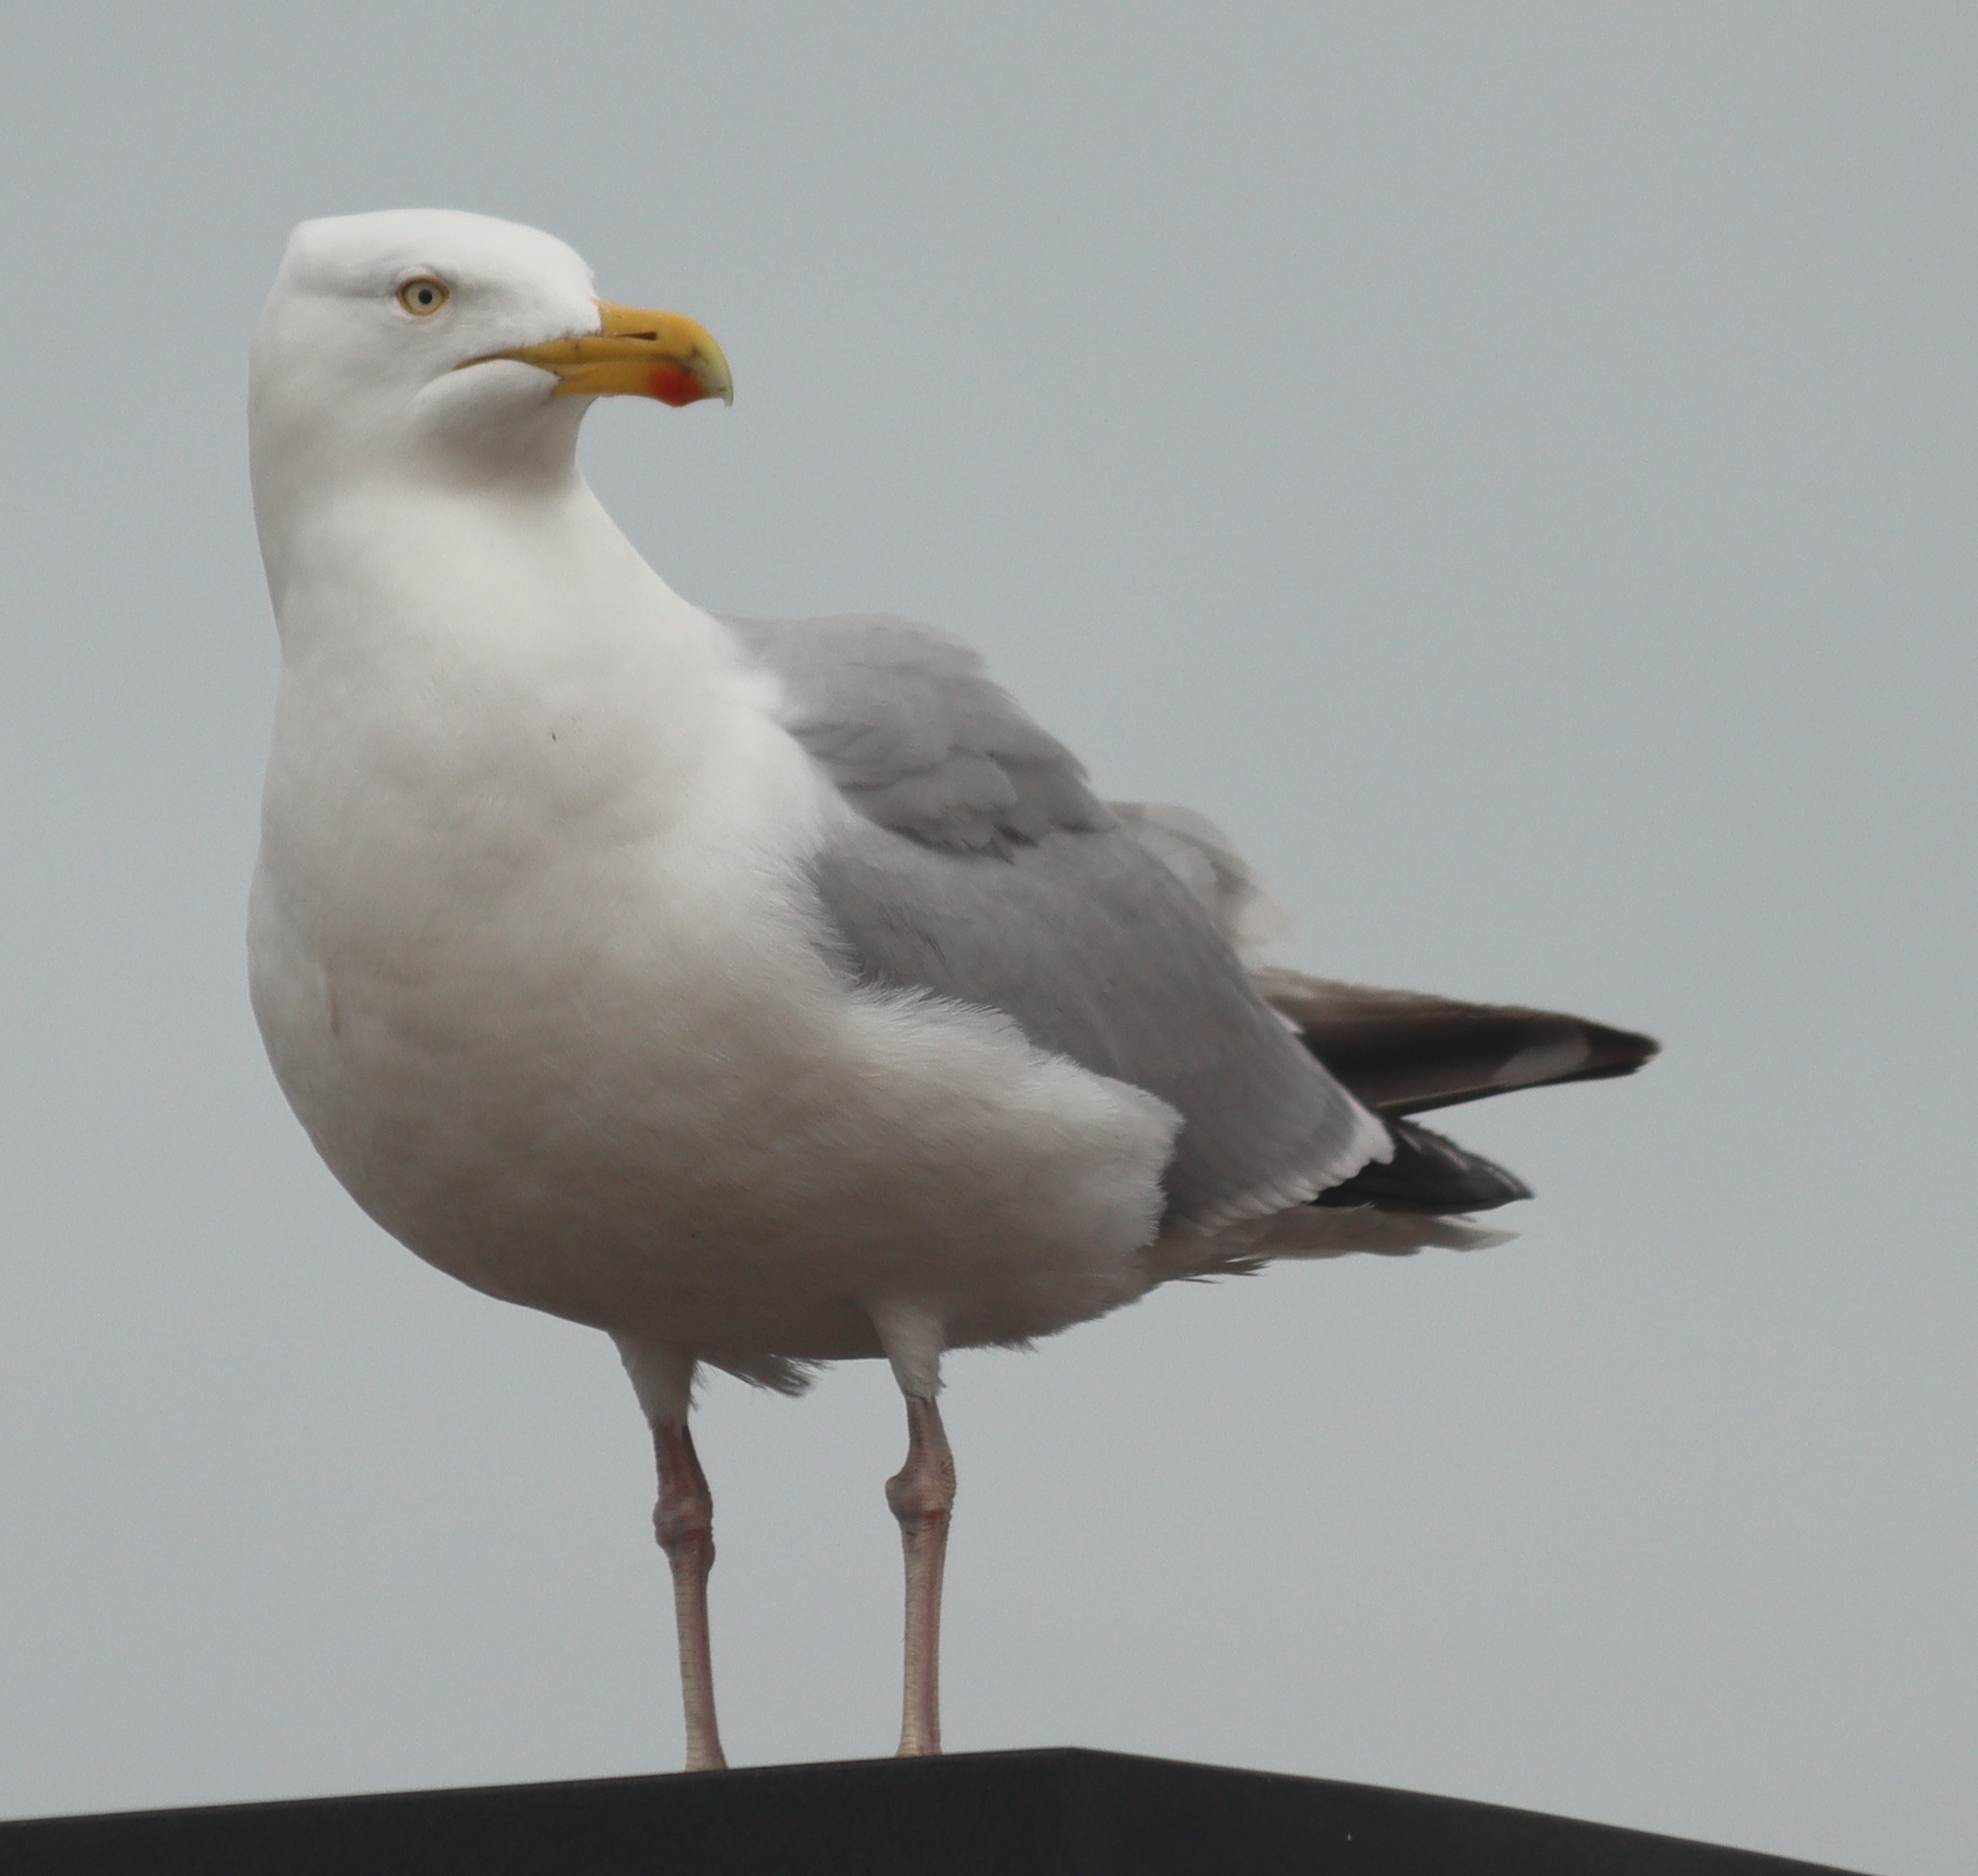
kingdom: Animalia
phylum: Chordata
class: Aves
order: Charadriiformes
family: Laridae
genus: Larus
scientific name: Larus argentatus
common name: Herring gull
